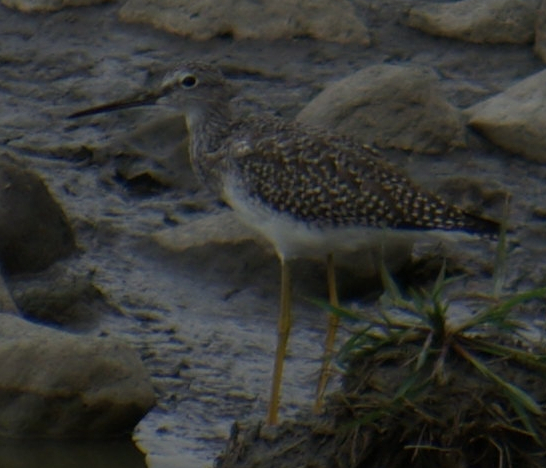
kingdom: Animalia
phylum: Chordata
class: Aves
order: Charadriiformes
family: Scolopacidae
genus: Tringa
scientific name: Tringa melanoleuca
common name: Greater yellowlegs
